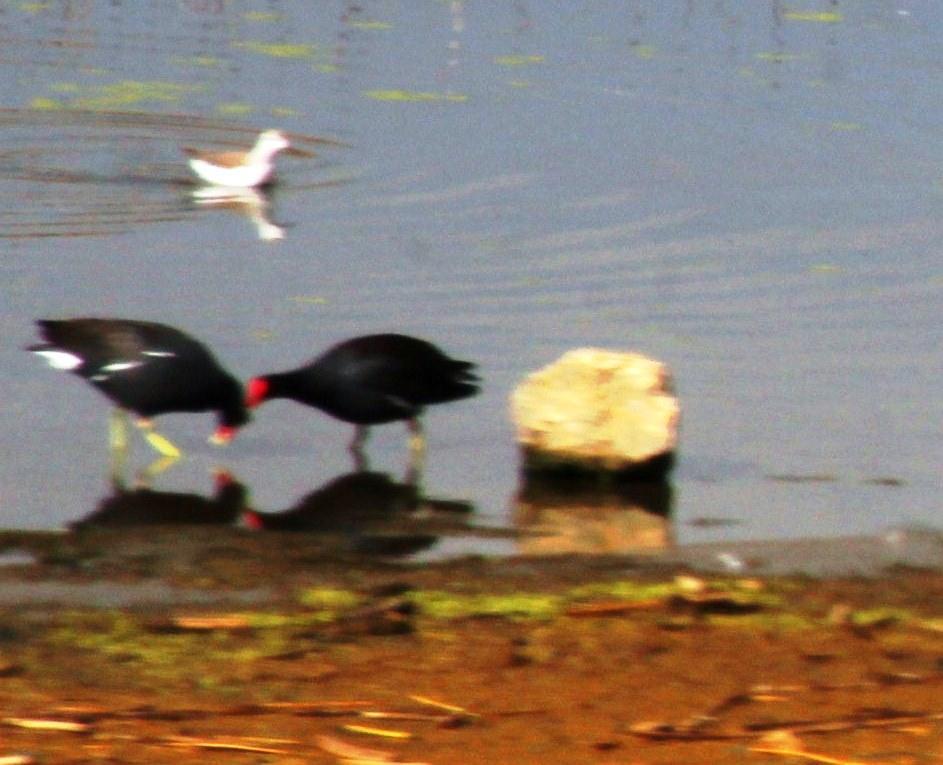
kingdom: Animalia
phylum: Chordata
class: Aves
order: Gruiformes
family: Rallidae
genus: Gallinula
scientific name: Gallinula chloropus
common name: Common moorhen
